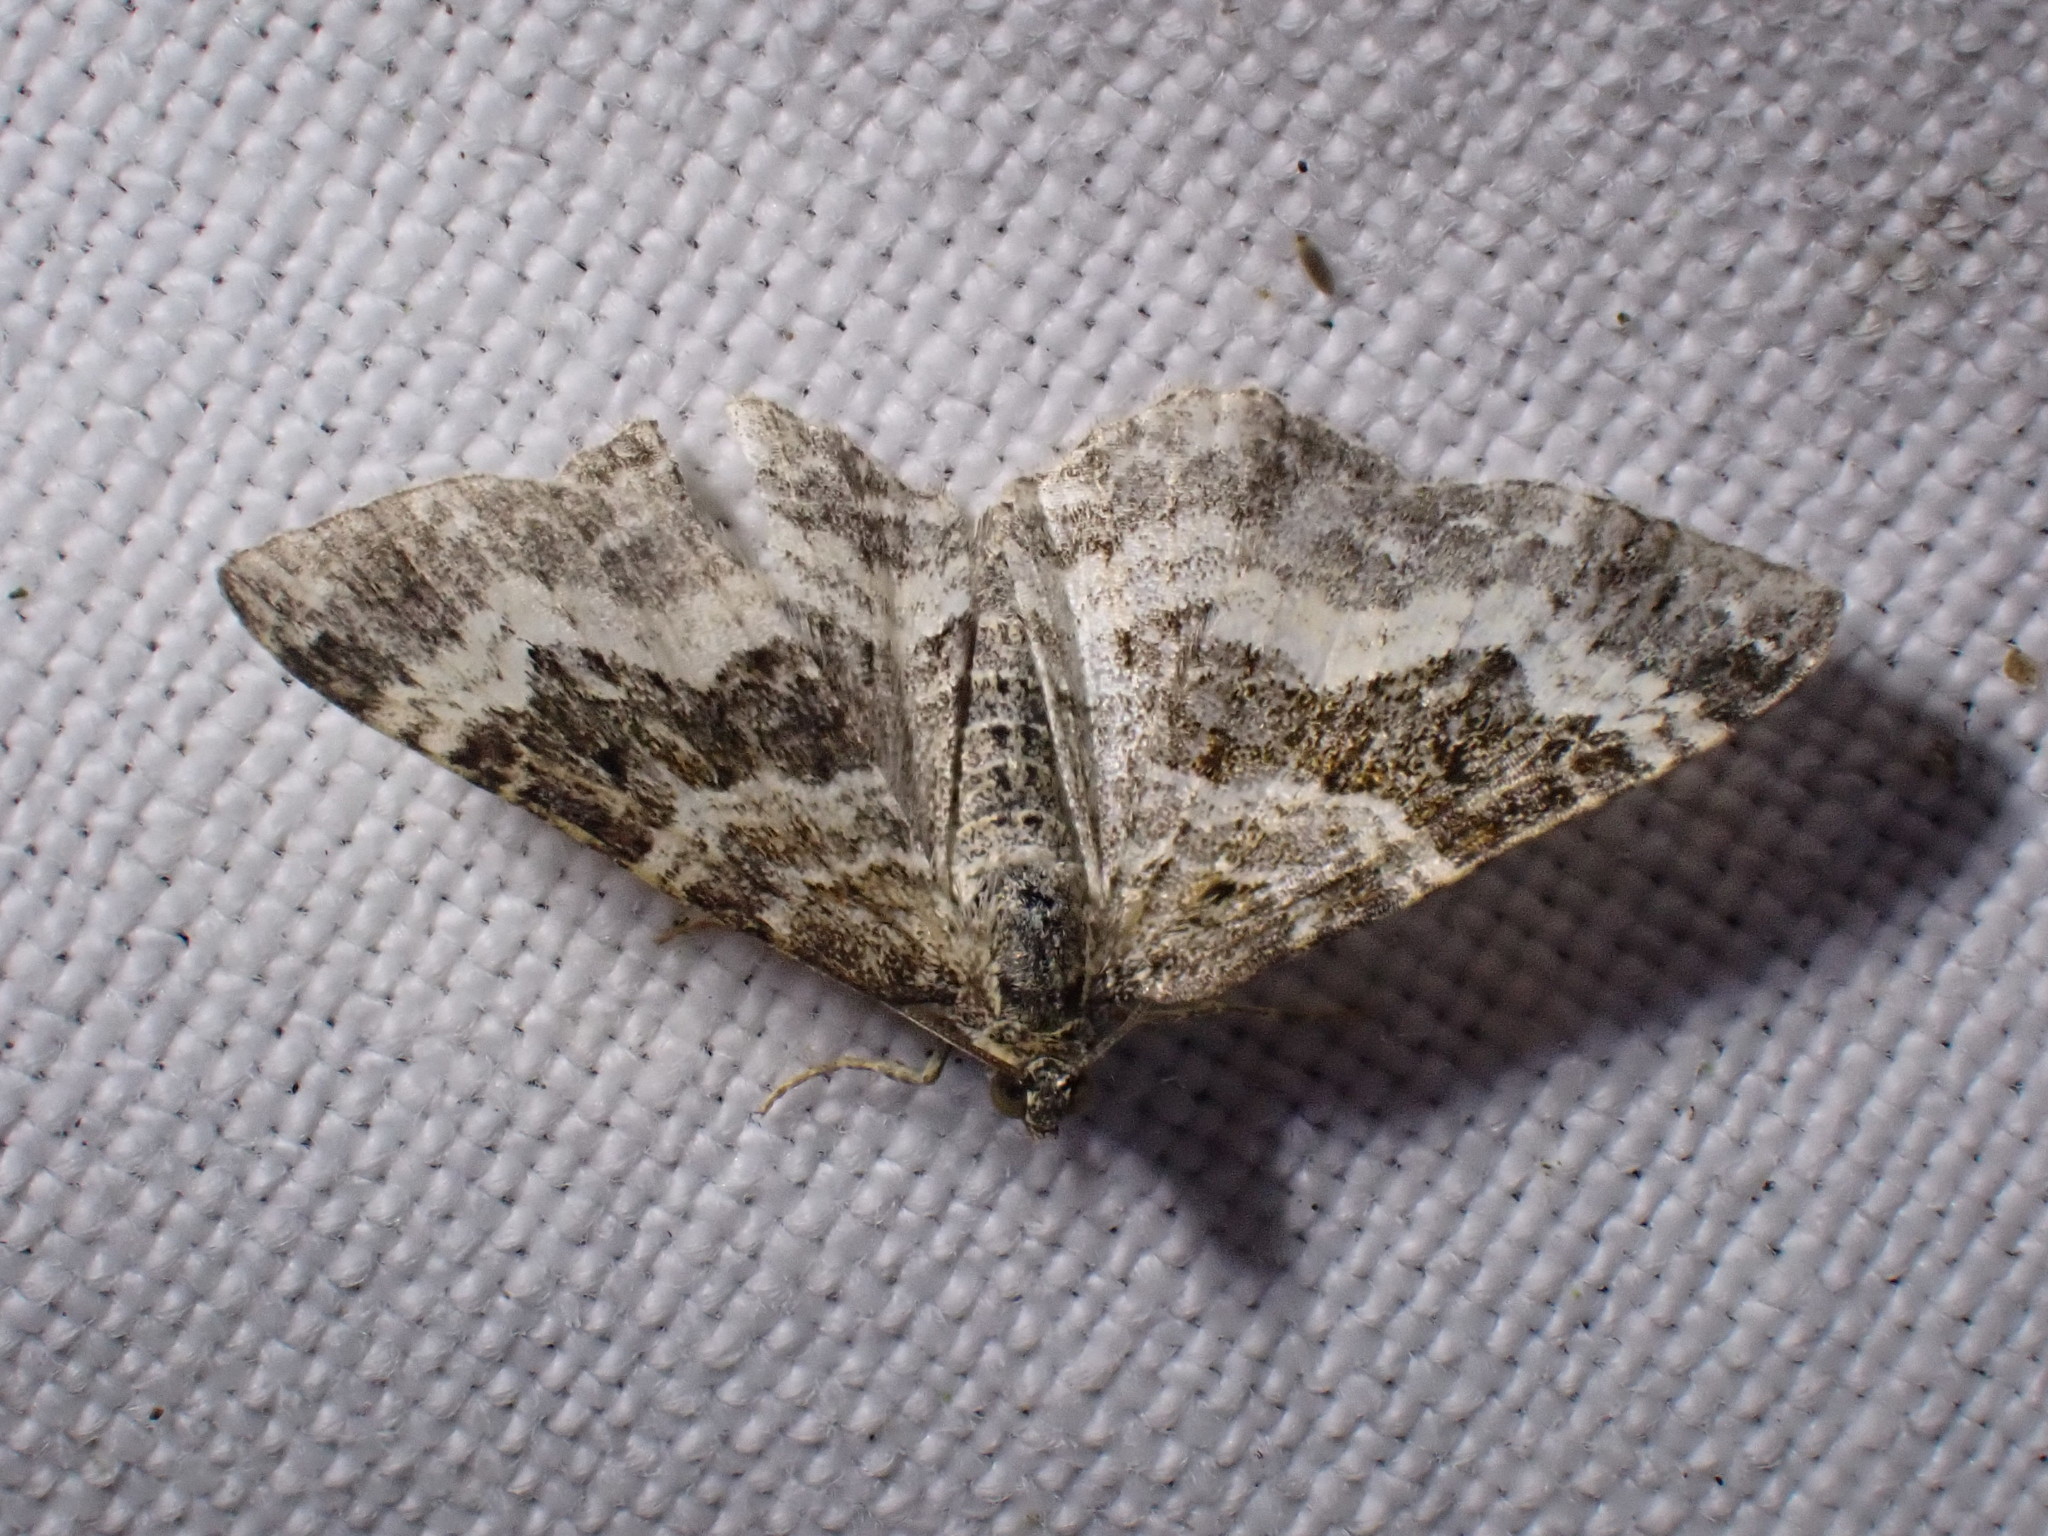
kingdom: Animalia
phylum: Arthropoda
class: Insecta
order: Lepidoptera
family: Geometridae
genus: Epirrhoe
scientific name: Epirrhoe alternata
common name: Common carpet
